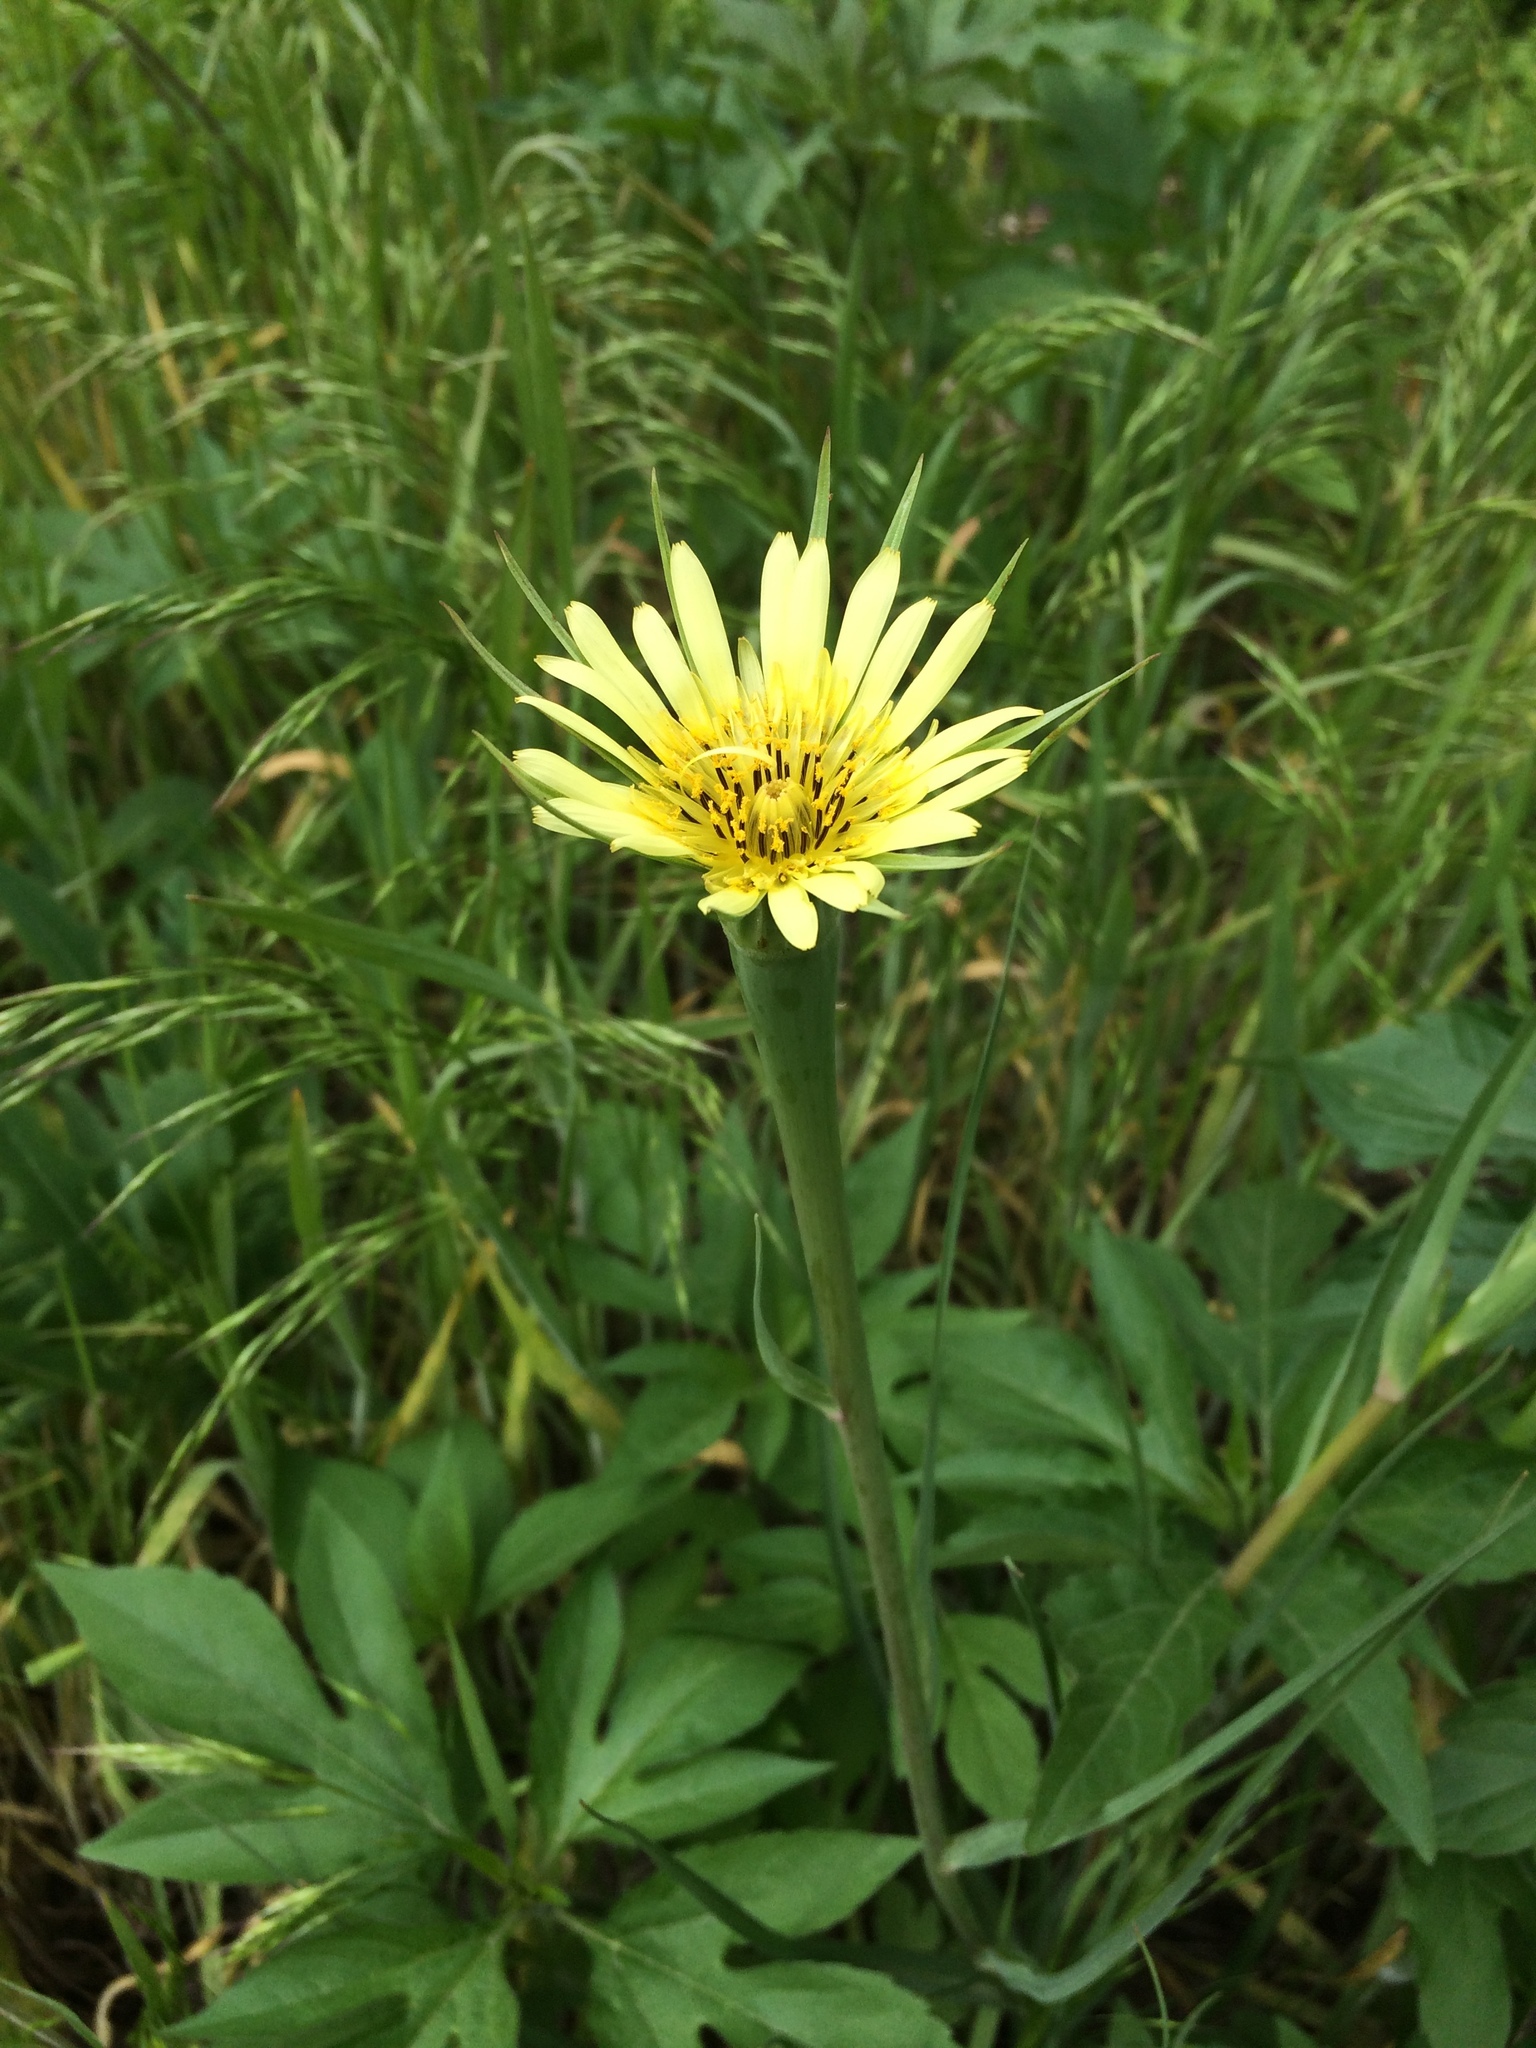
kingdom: Plantae
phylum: Tracheophyta
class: Magnoliopsida
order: Asterales
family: Asteraceae
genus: Tragopogon
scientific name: Tragopogon dubius
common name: Yellow salsify
